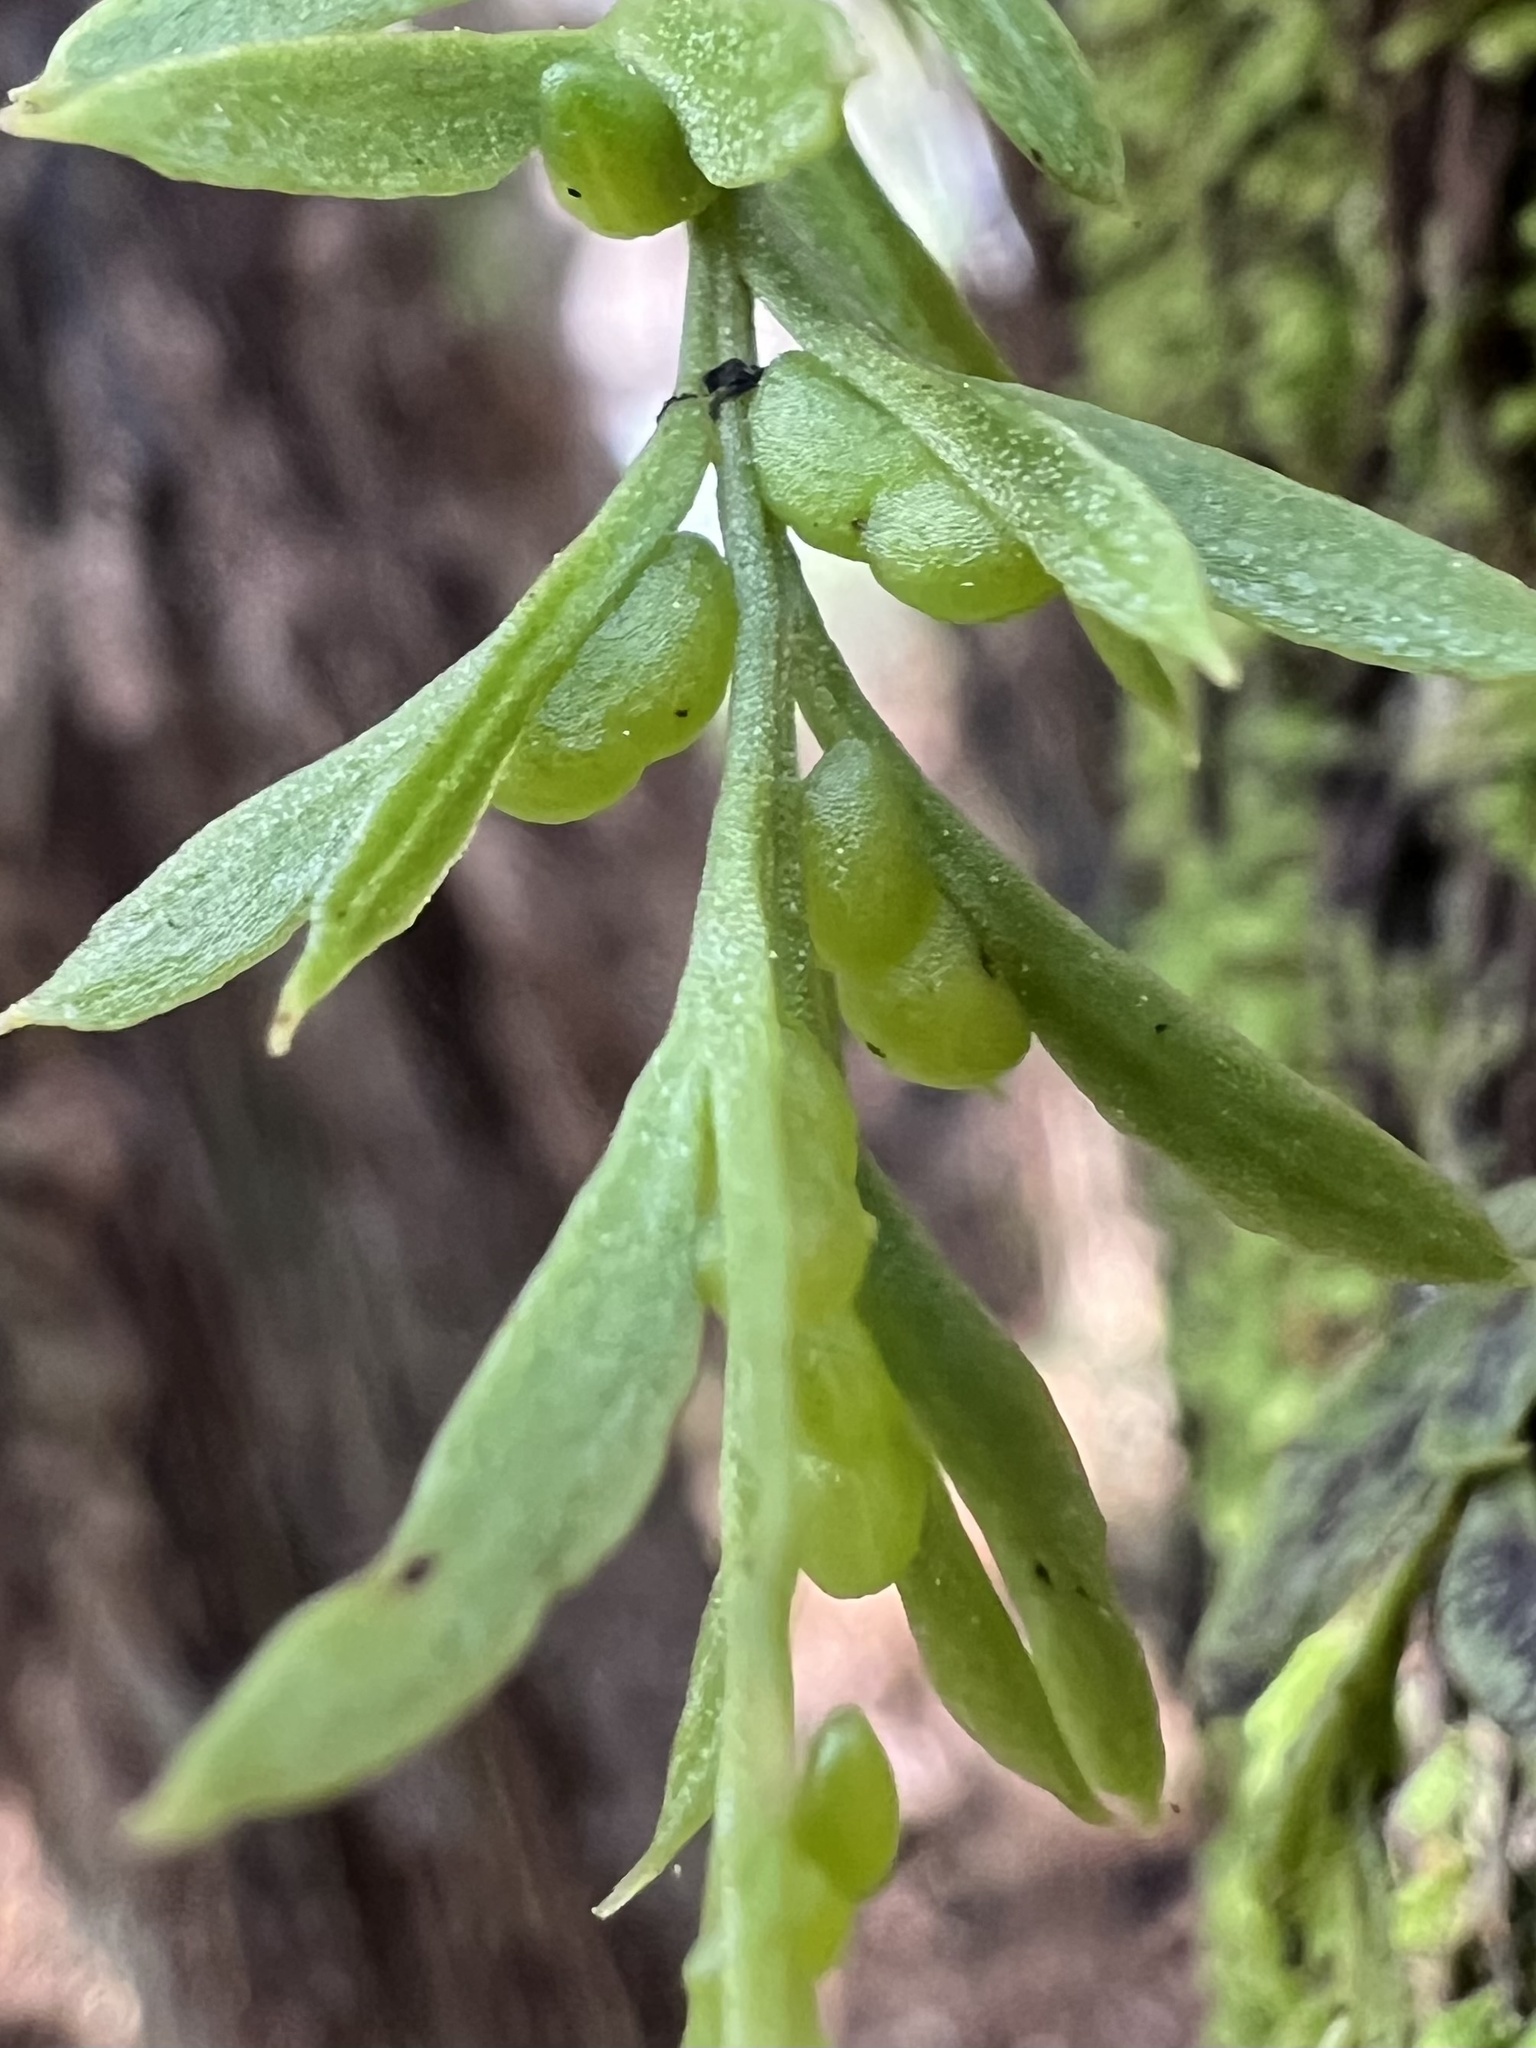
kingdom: Plantae
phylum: Tracheophyta
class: Polypodiopsida
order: Psilotales
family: Psilotaceae
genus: Tmesipteris
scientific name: Tmesipteris elongata
